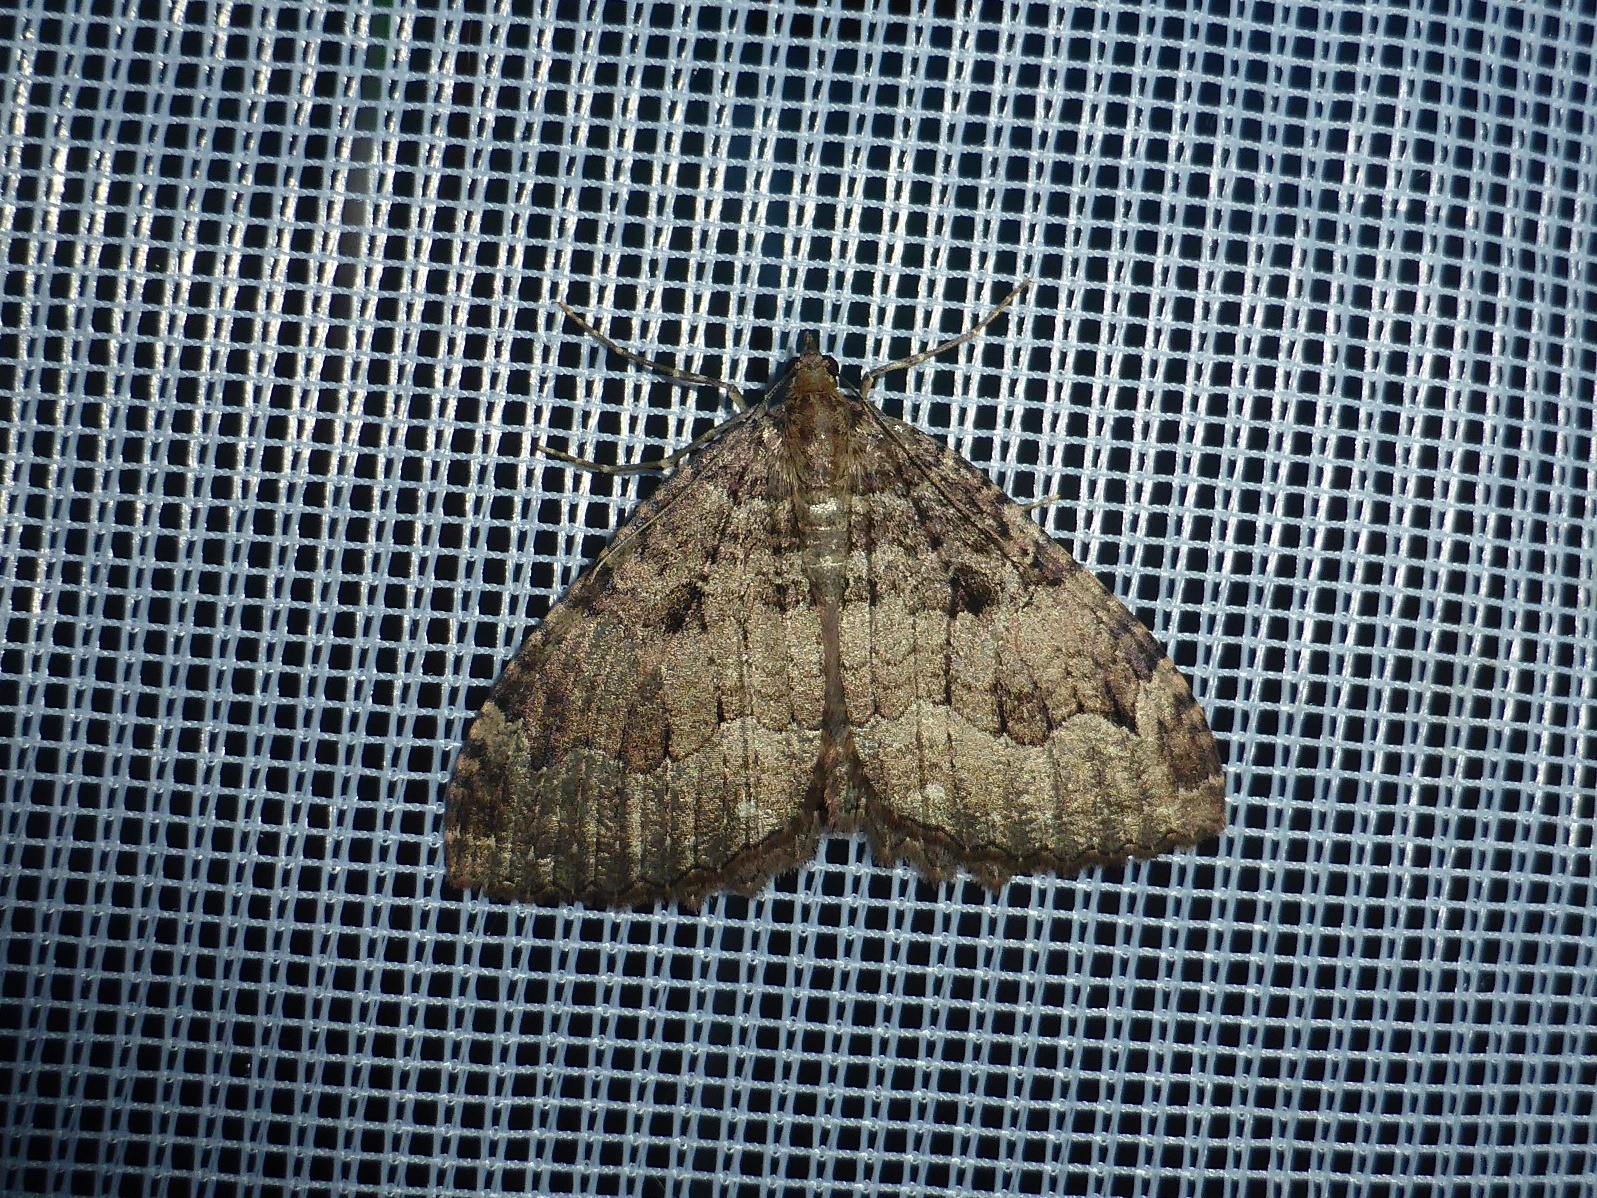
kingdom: Animalia
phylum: Arthropoda
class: Insecta
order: Lepidoptera
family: Geometridae
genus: Triphosa
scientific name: Triphosa dubitata
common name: Tissue
